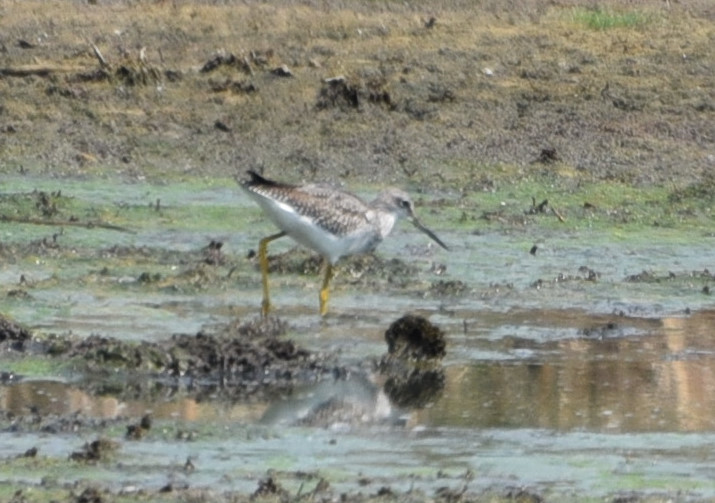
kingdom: Animalia
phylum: Chordata
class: Aves
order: Charadriiformes
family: Scolopacidae
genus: Tringa
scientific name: Tringa melanoleuca
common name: Greater yellowlegs
